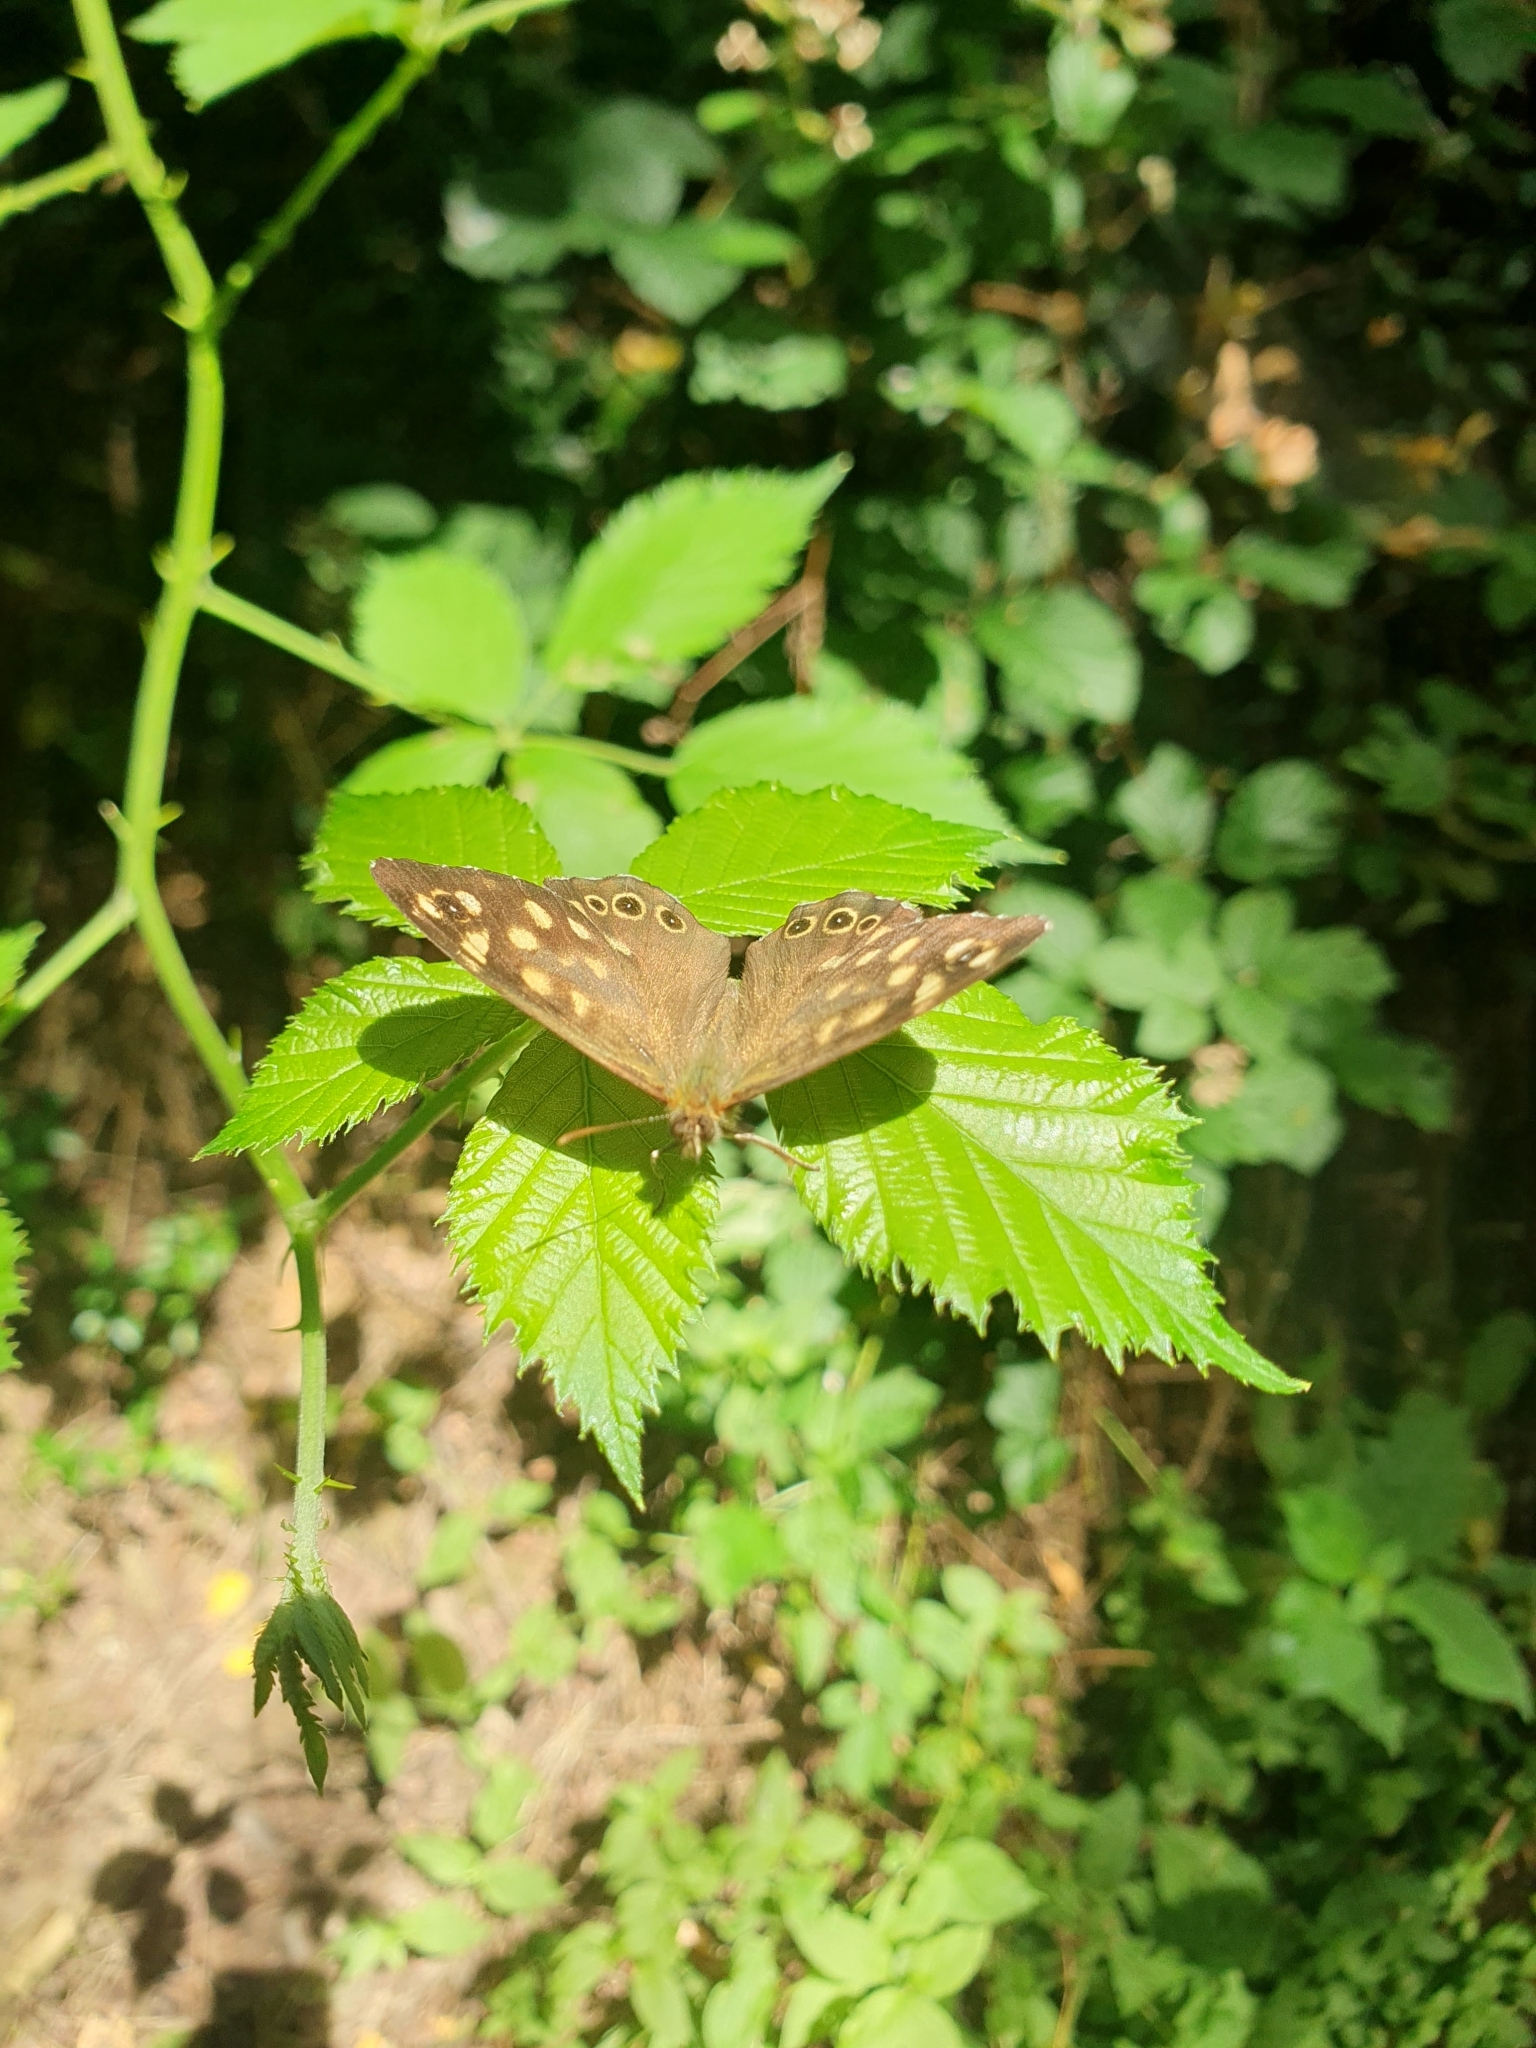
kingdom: Animalia
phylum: Arthropoda
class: Insecta
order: Lepidoptera
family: Nymphalidae
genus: Pararge
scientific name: Pararge aegeria
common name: Speckled wood
